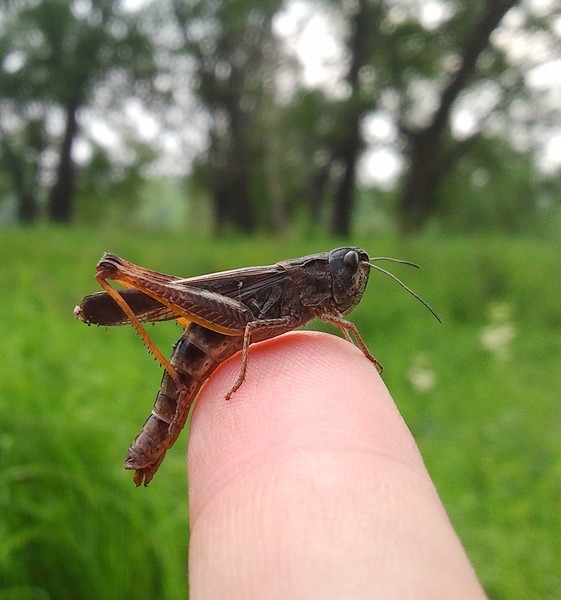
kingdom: Animalia
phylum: Arthropoda
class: Insecta
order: Orthoptera
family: Acrididae
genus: Stauroderus
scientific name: Stauroderus scalaris
